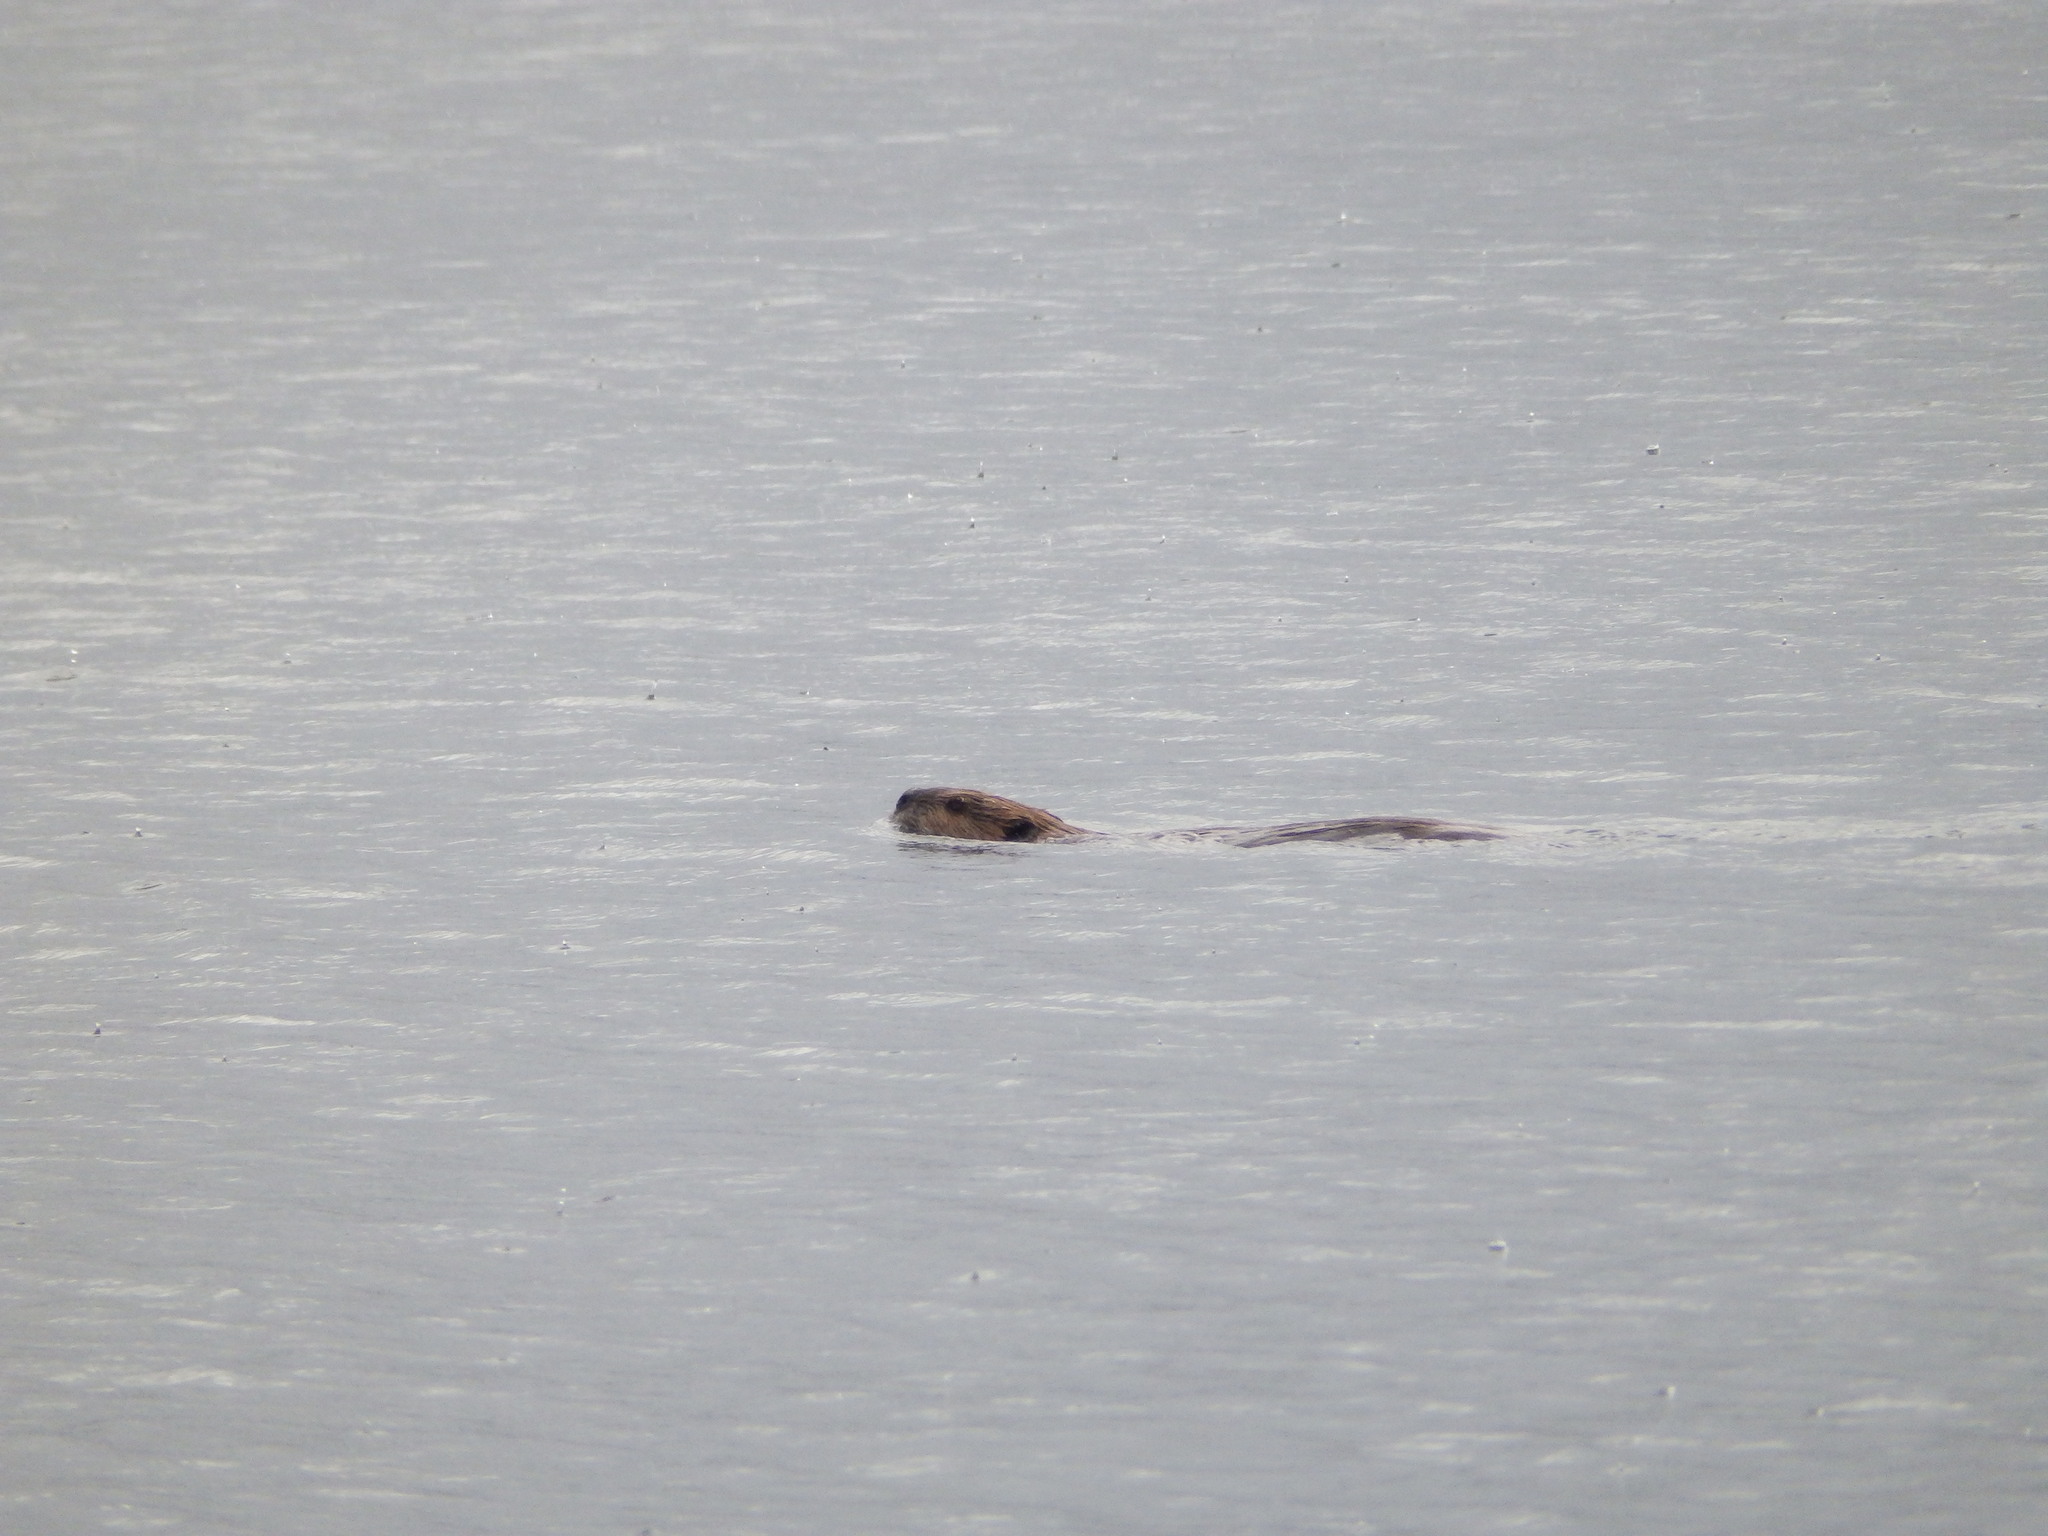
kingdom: Animalia
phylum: Chordata
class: Mammalia
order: Rodentia
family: Castoridae
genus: Castor
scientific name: Castor canadensis
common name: American beaver
